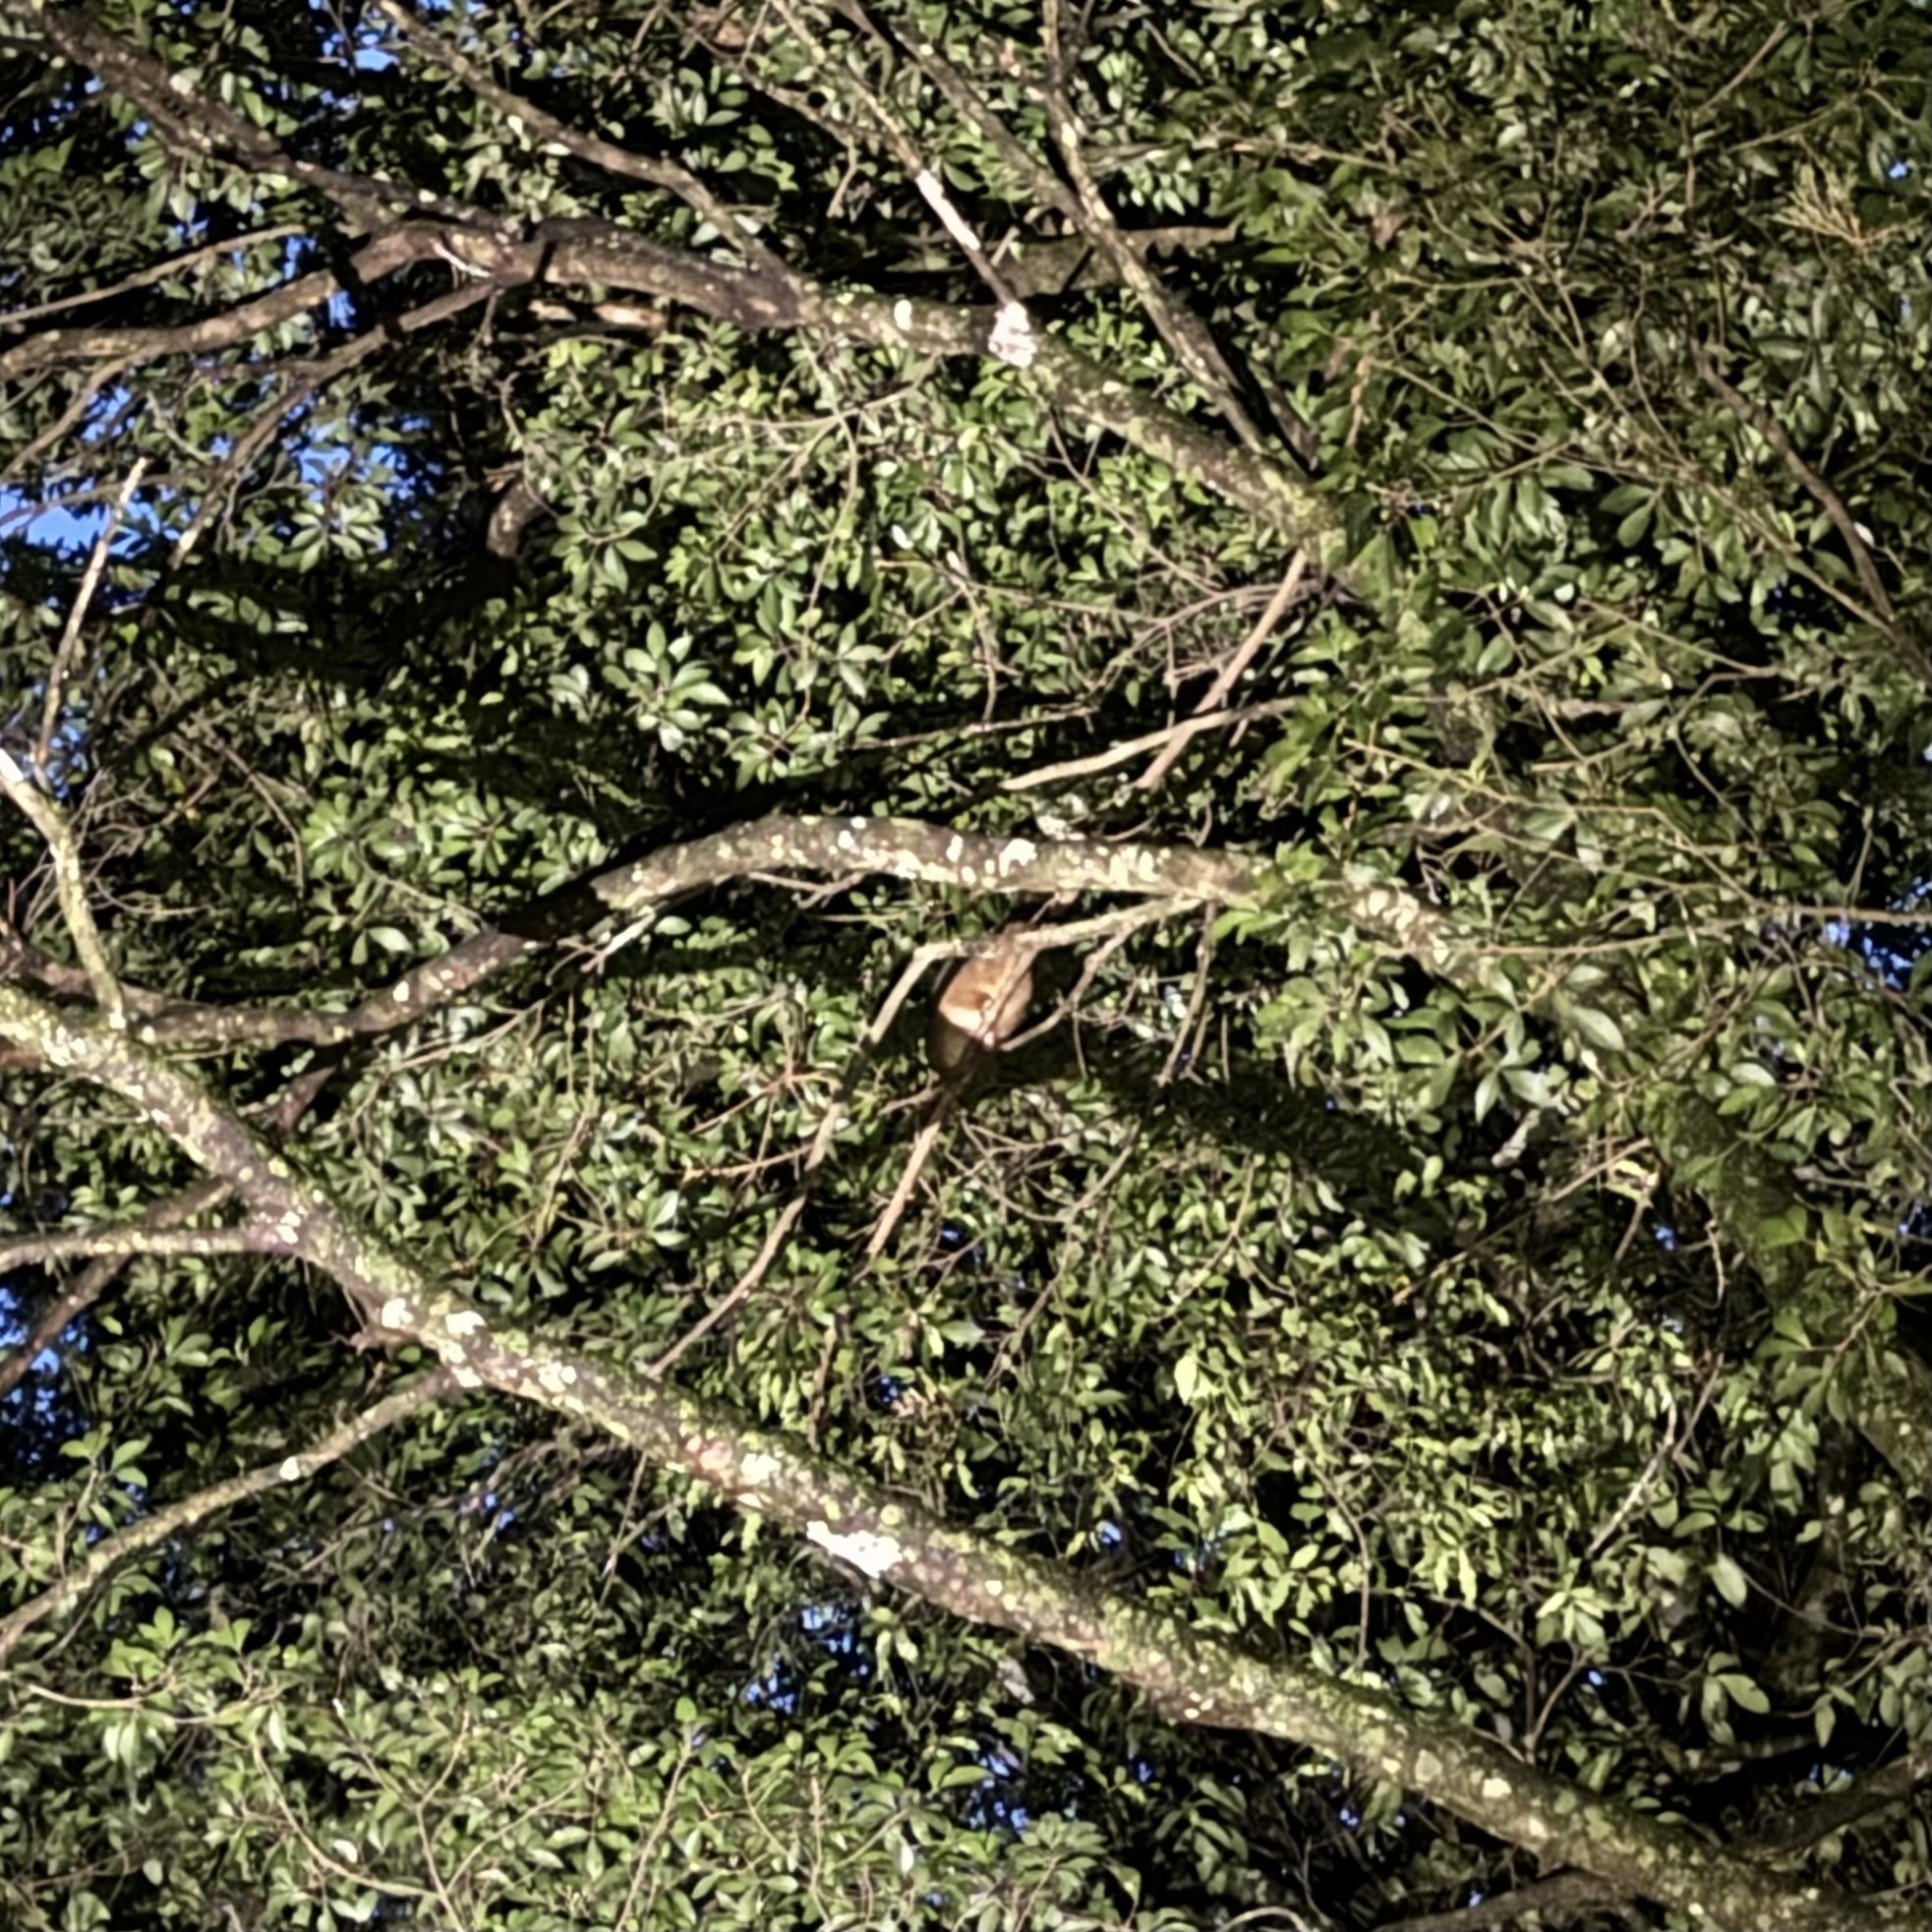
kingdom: Animalia
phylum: Chordata
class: Mammalia
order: Diprotodontia
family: Pseudocheiridae
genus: Pseudocheirus
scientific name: Pseudocheirus peregrinus
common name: Common ringtail possum
